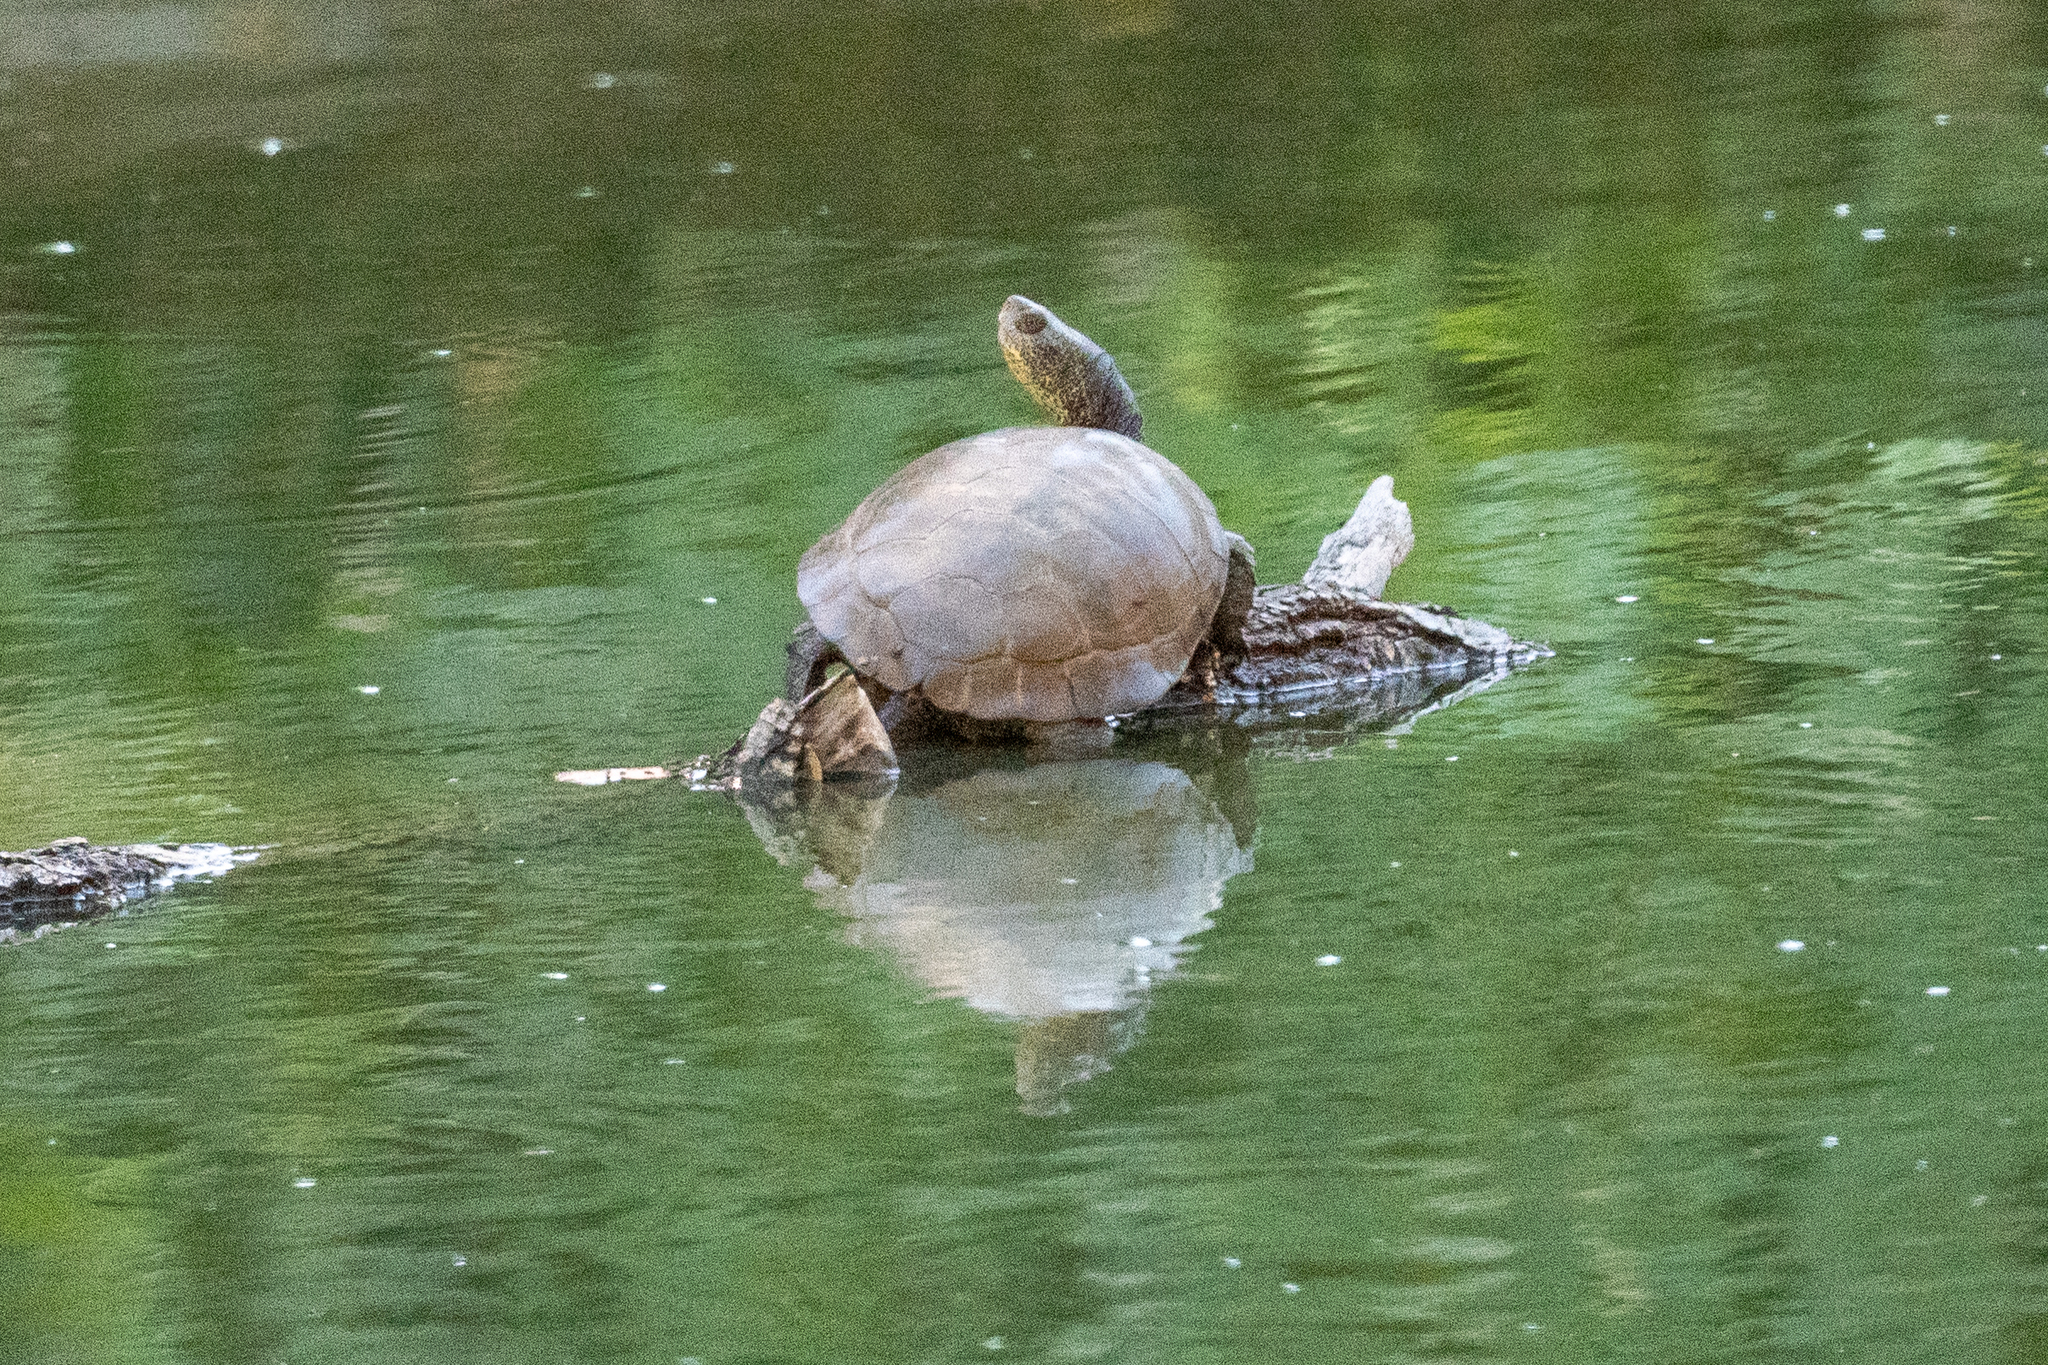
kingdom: Animalia
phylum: Chordata
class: Testudines
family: Emydidae
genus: Actinemys
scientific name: Actinemys marmorata
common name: Western pond turtle
